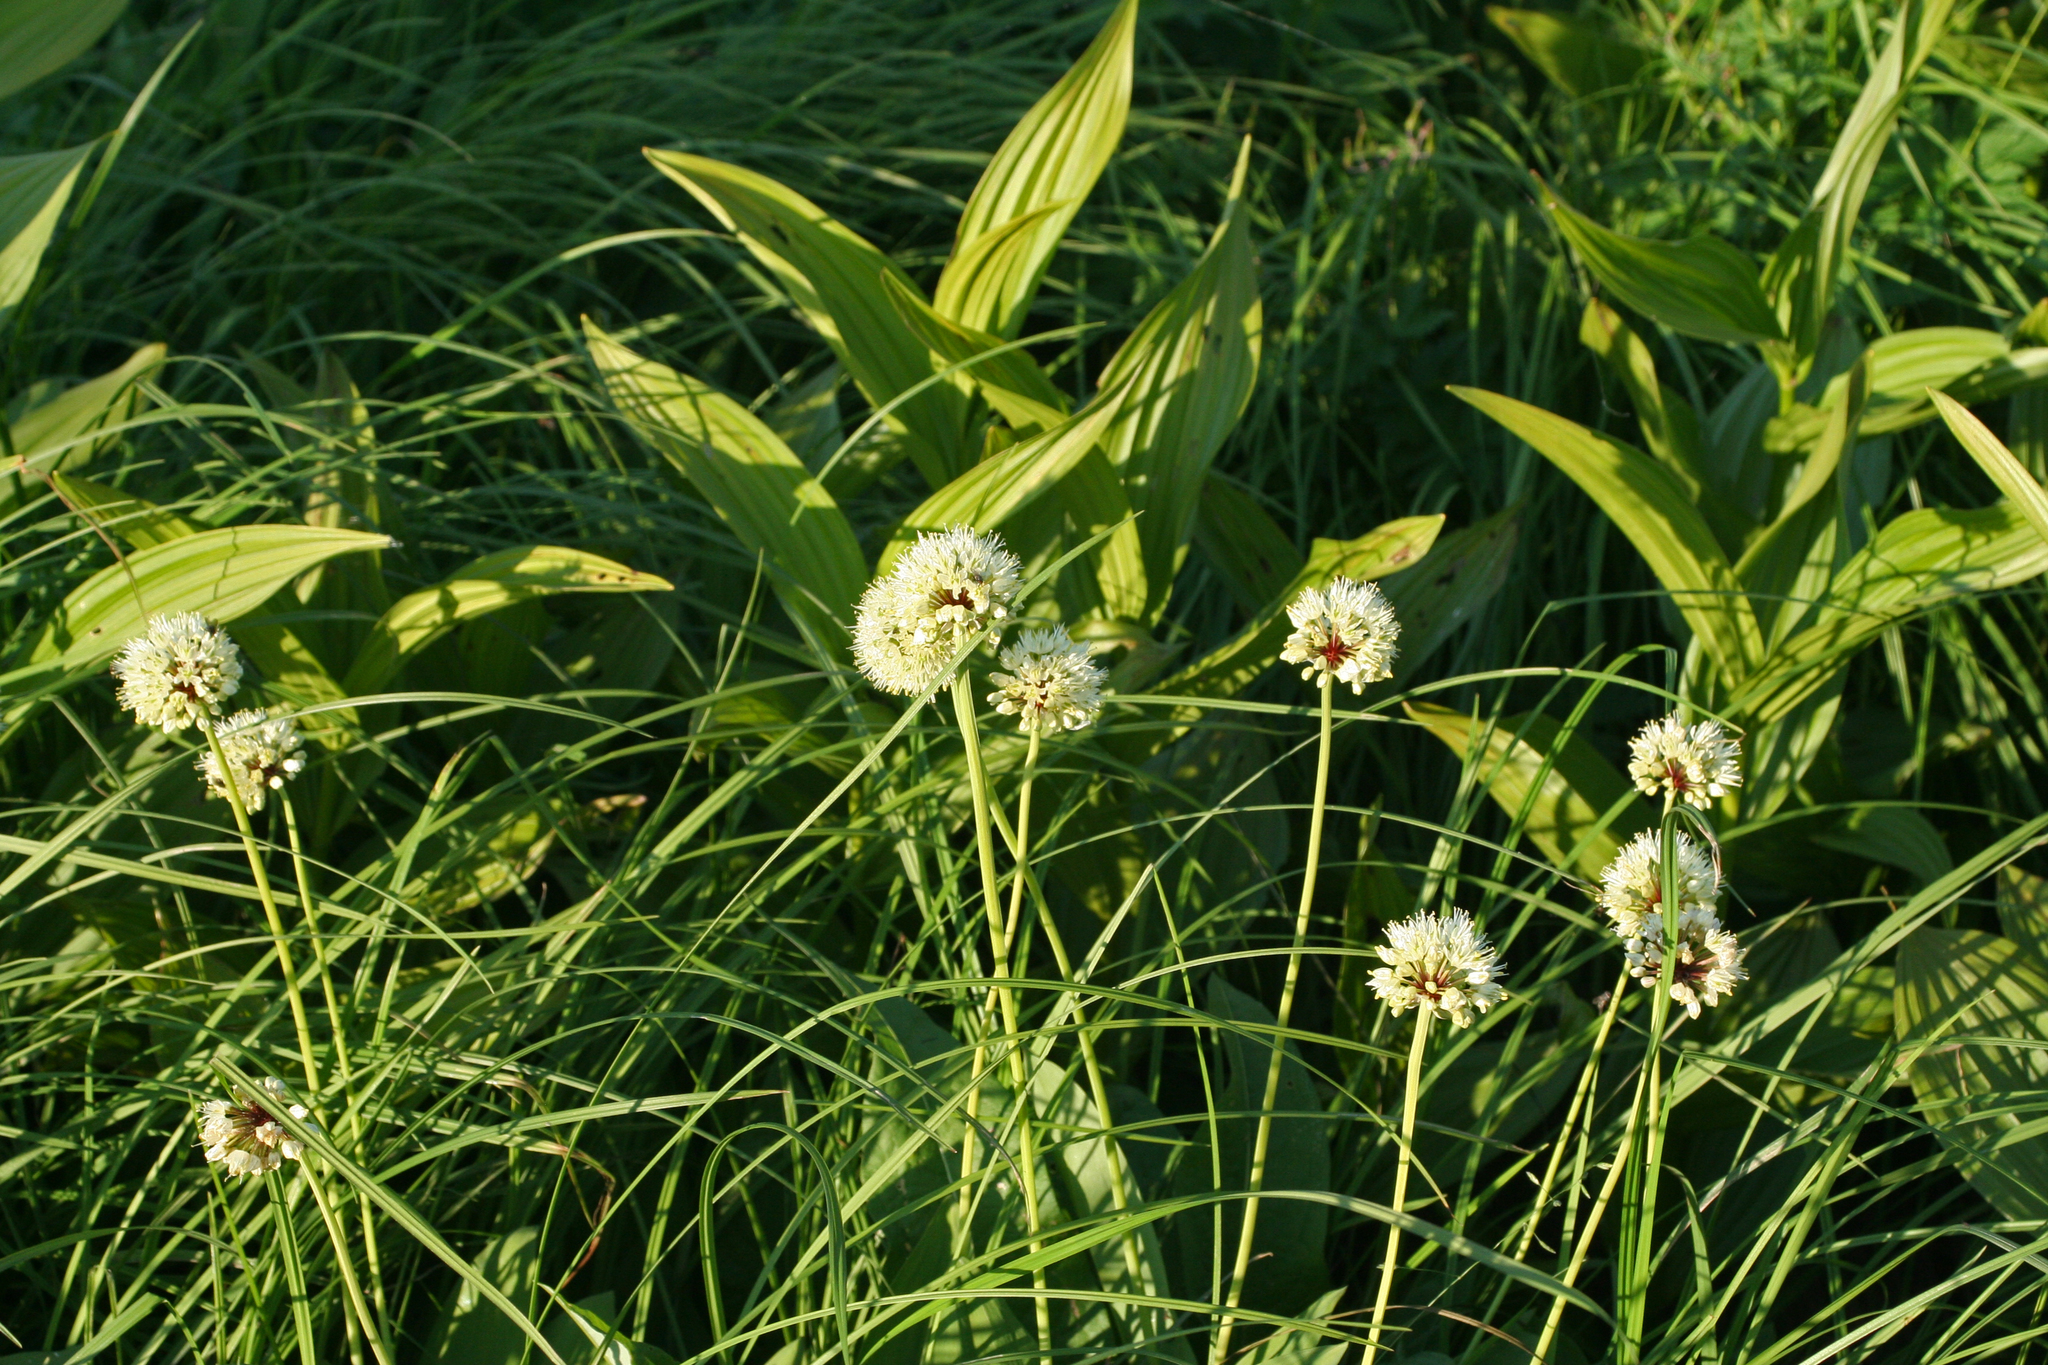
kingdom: Plantae
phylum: Tracheophyta
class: Liliopsida
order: Asparagales
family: Amaryllidaceae
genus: Allium
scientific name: Allium microdictyon
